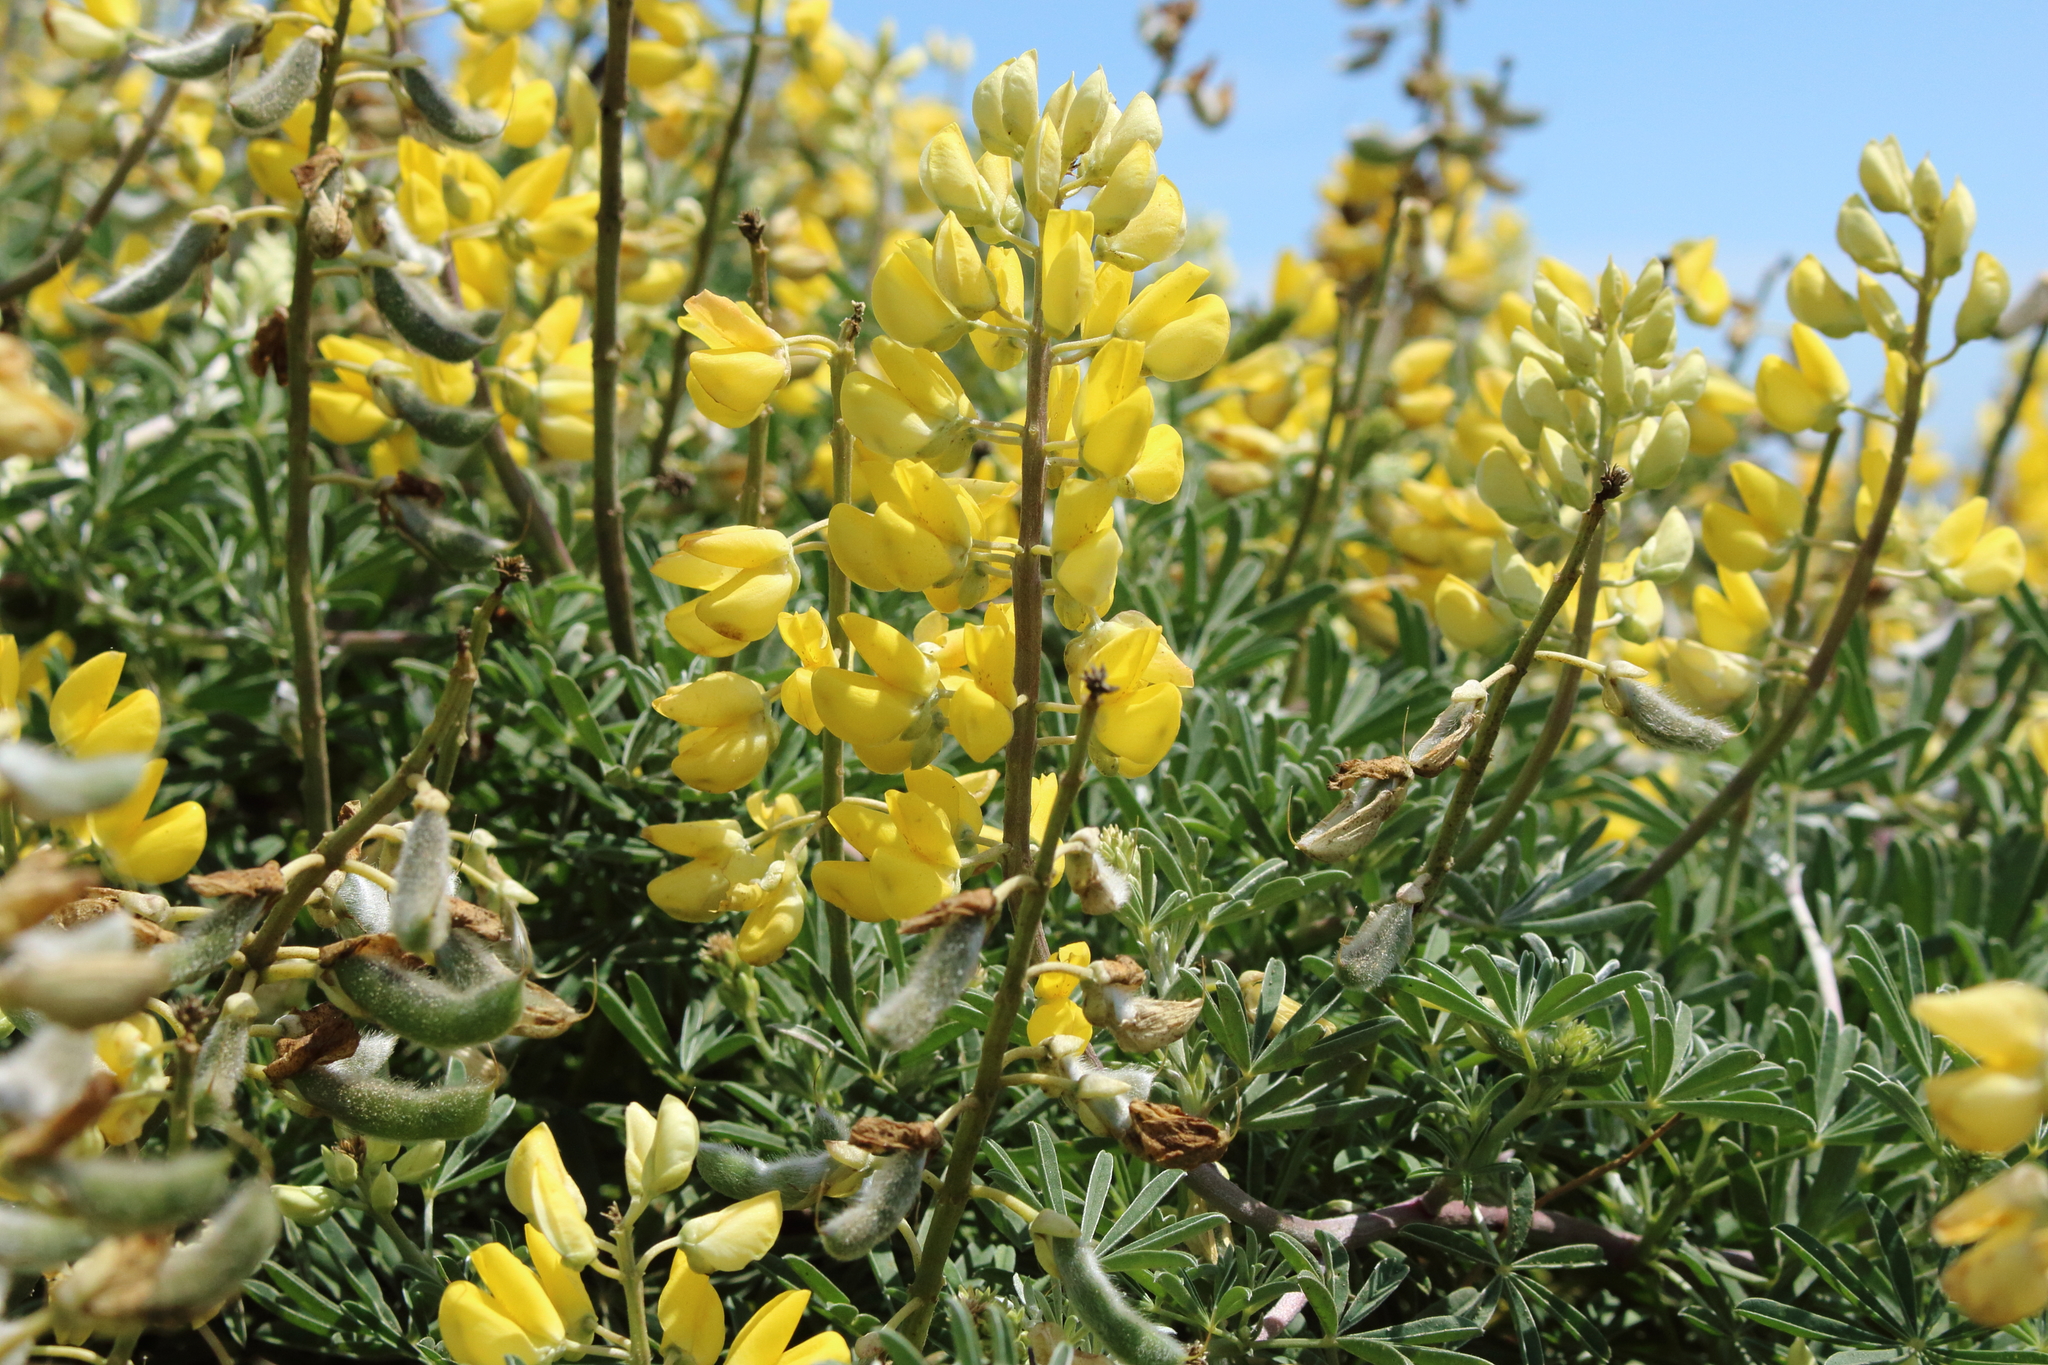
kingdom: Plantae
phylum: Tracheophyta
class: Magnoliopsida
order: Fabales
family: Fabaceae
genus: Lupinus
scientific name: Lupinus arboreus
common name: Yellow bush lupine
